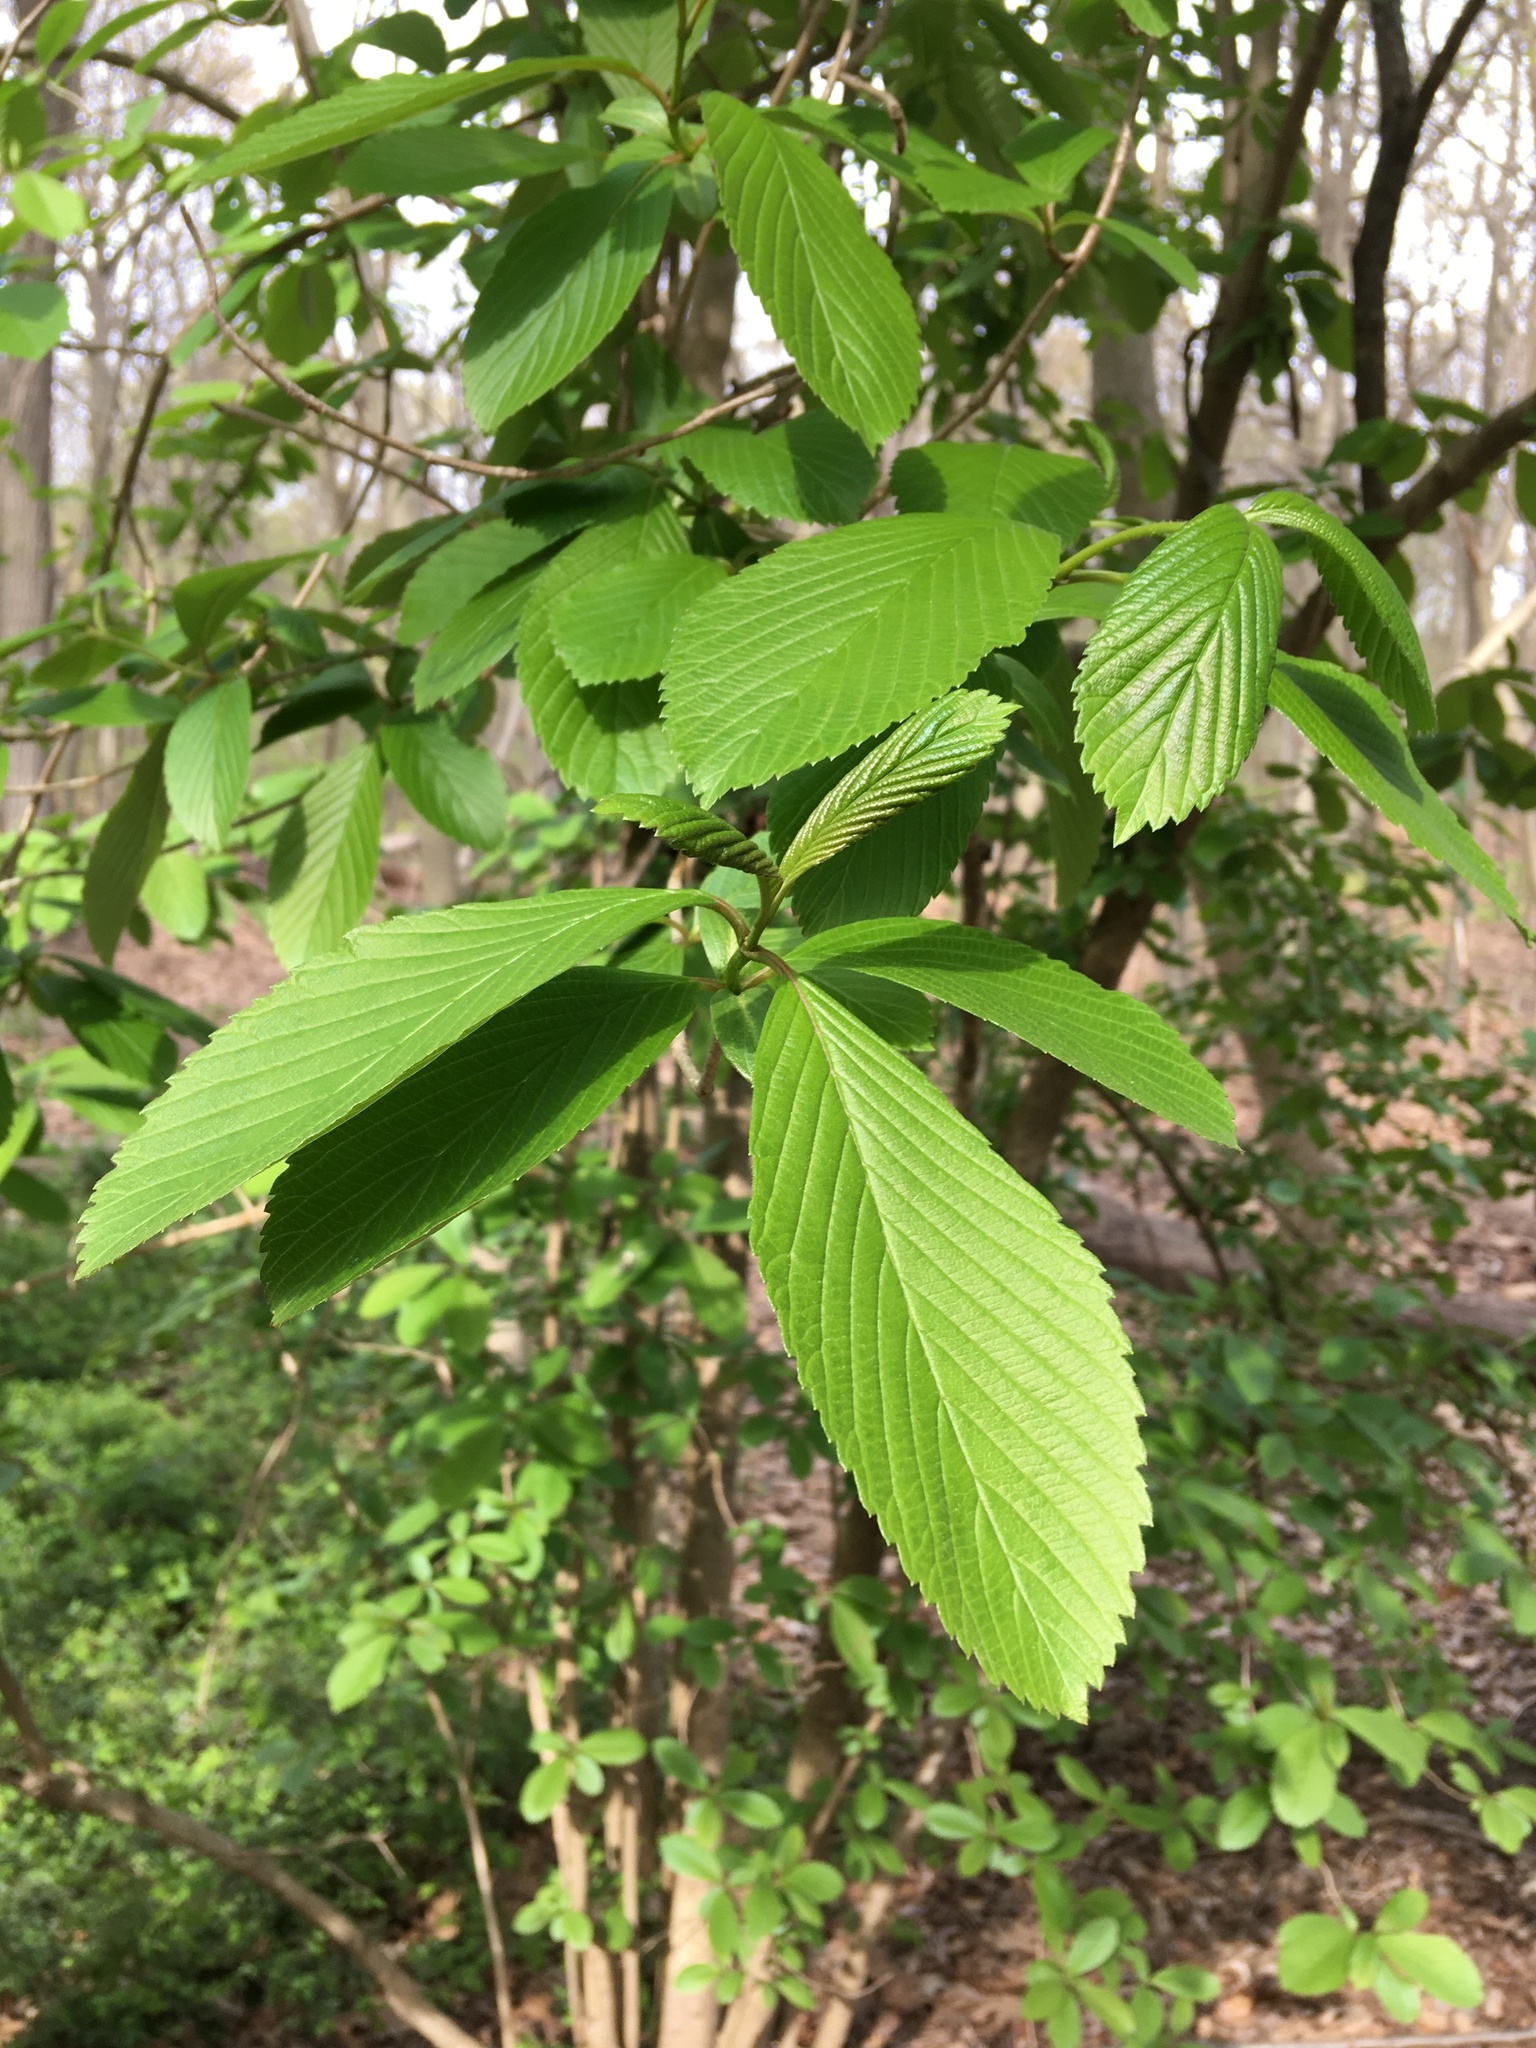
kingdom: Plantae
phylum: Tracheophyta
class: Magnoliopsida
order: Dipsacales
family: Viburnaceae
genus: Viburnum
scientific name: Viburnum sieboldii
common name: Siebold's arrowwood
